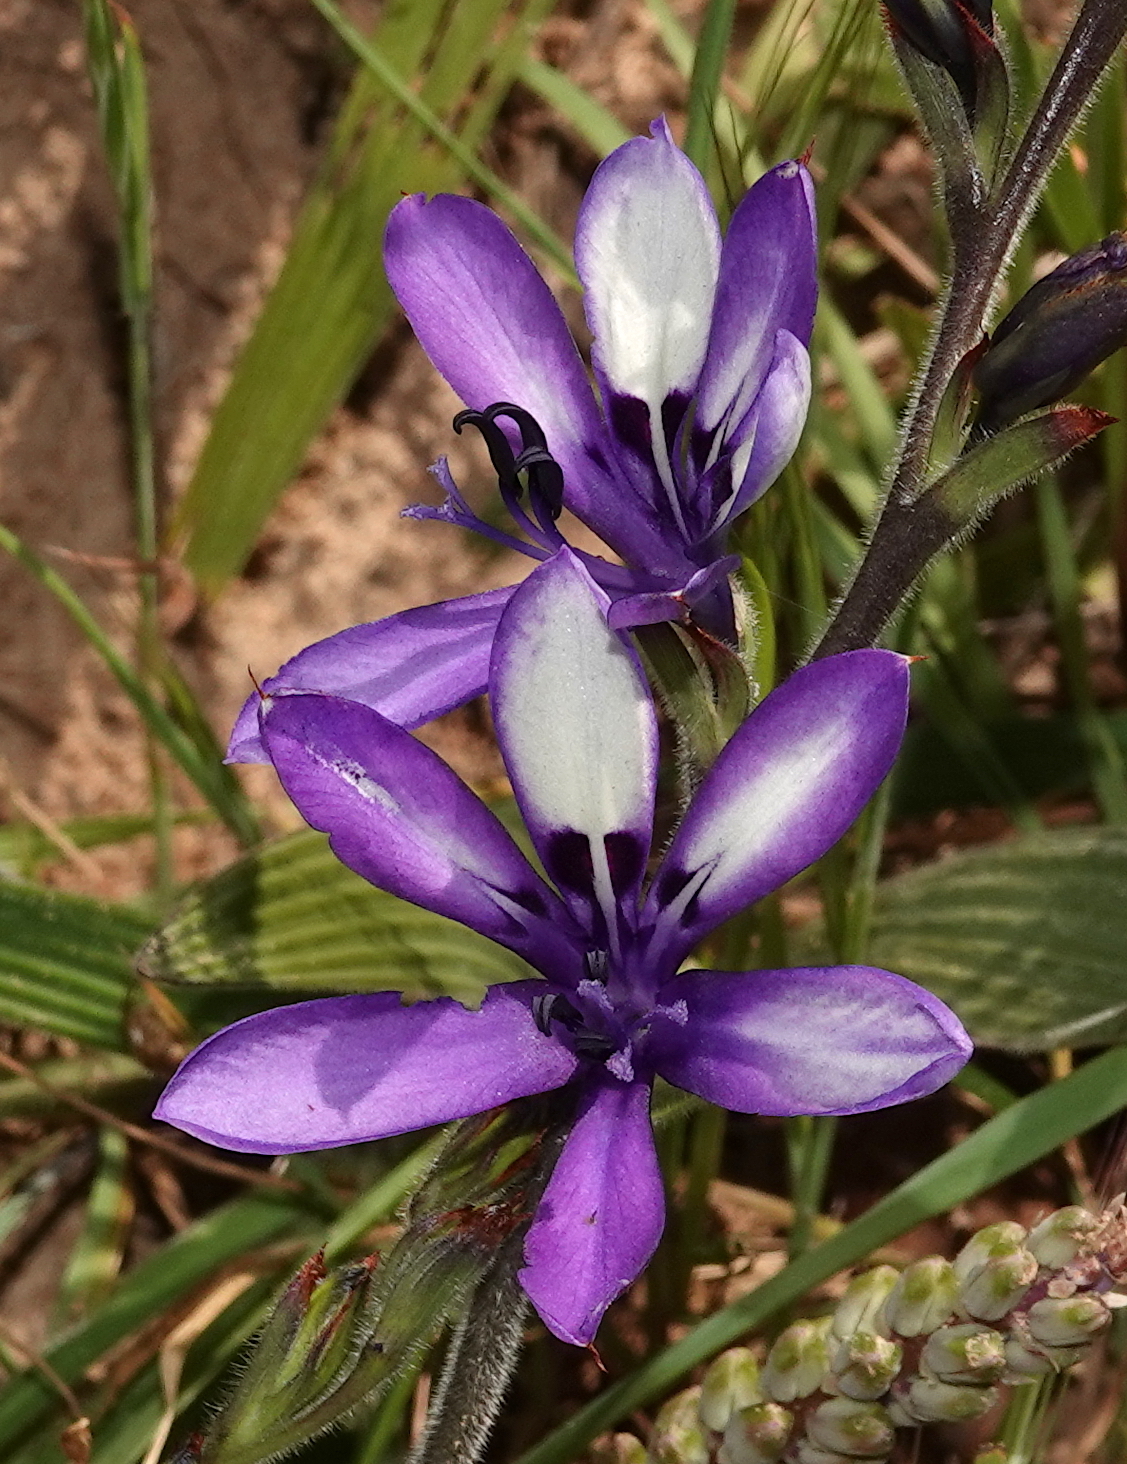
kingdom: Plantae
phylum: Tracheophyta
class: Liliopsida
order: Asparagales
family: Iridaceae
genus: Babiana
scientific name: Babiana inclinata
